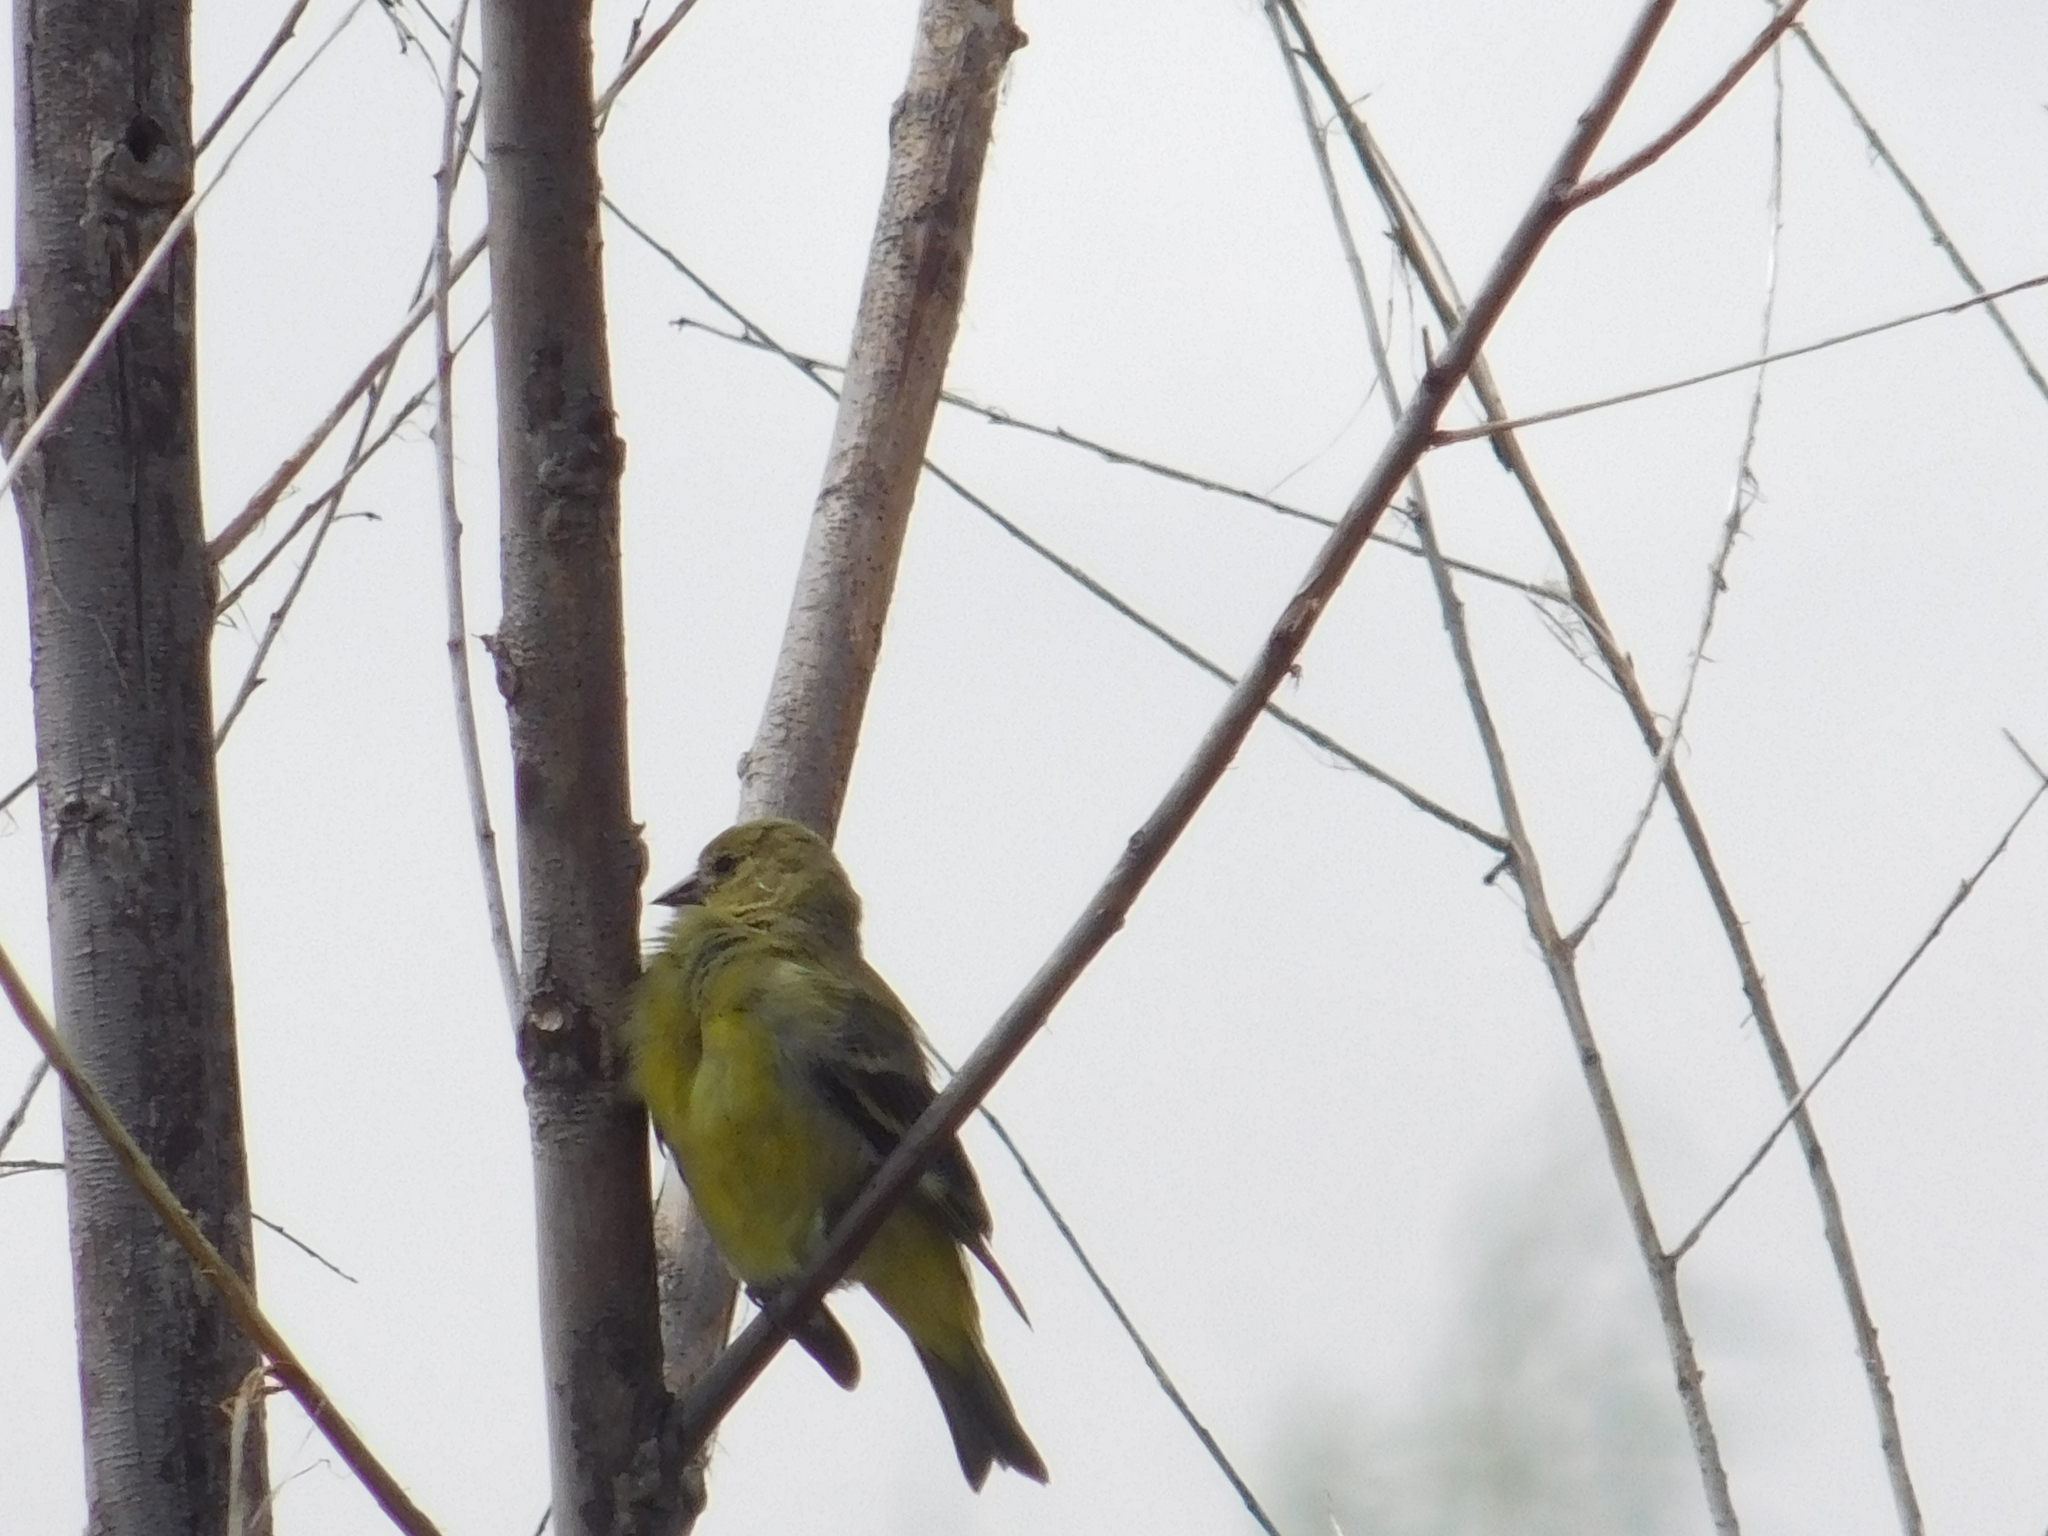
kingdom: Animalia
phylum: Chordata
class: Aves
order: Passeriformes
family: Fringillidae
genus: Spinus
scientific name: Spinus magellanicus
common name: Hooded siskin
